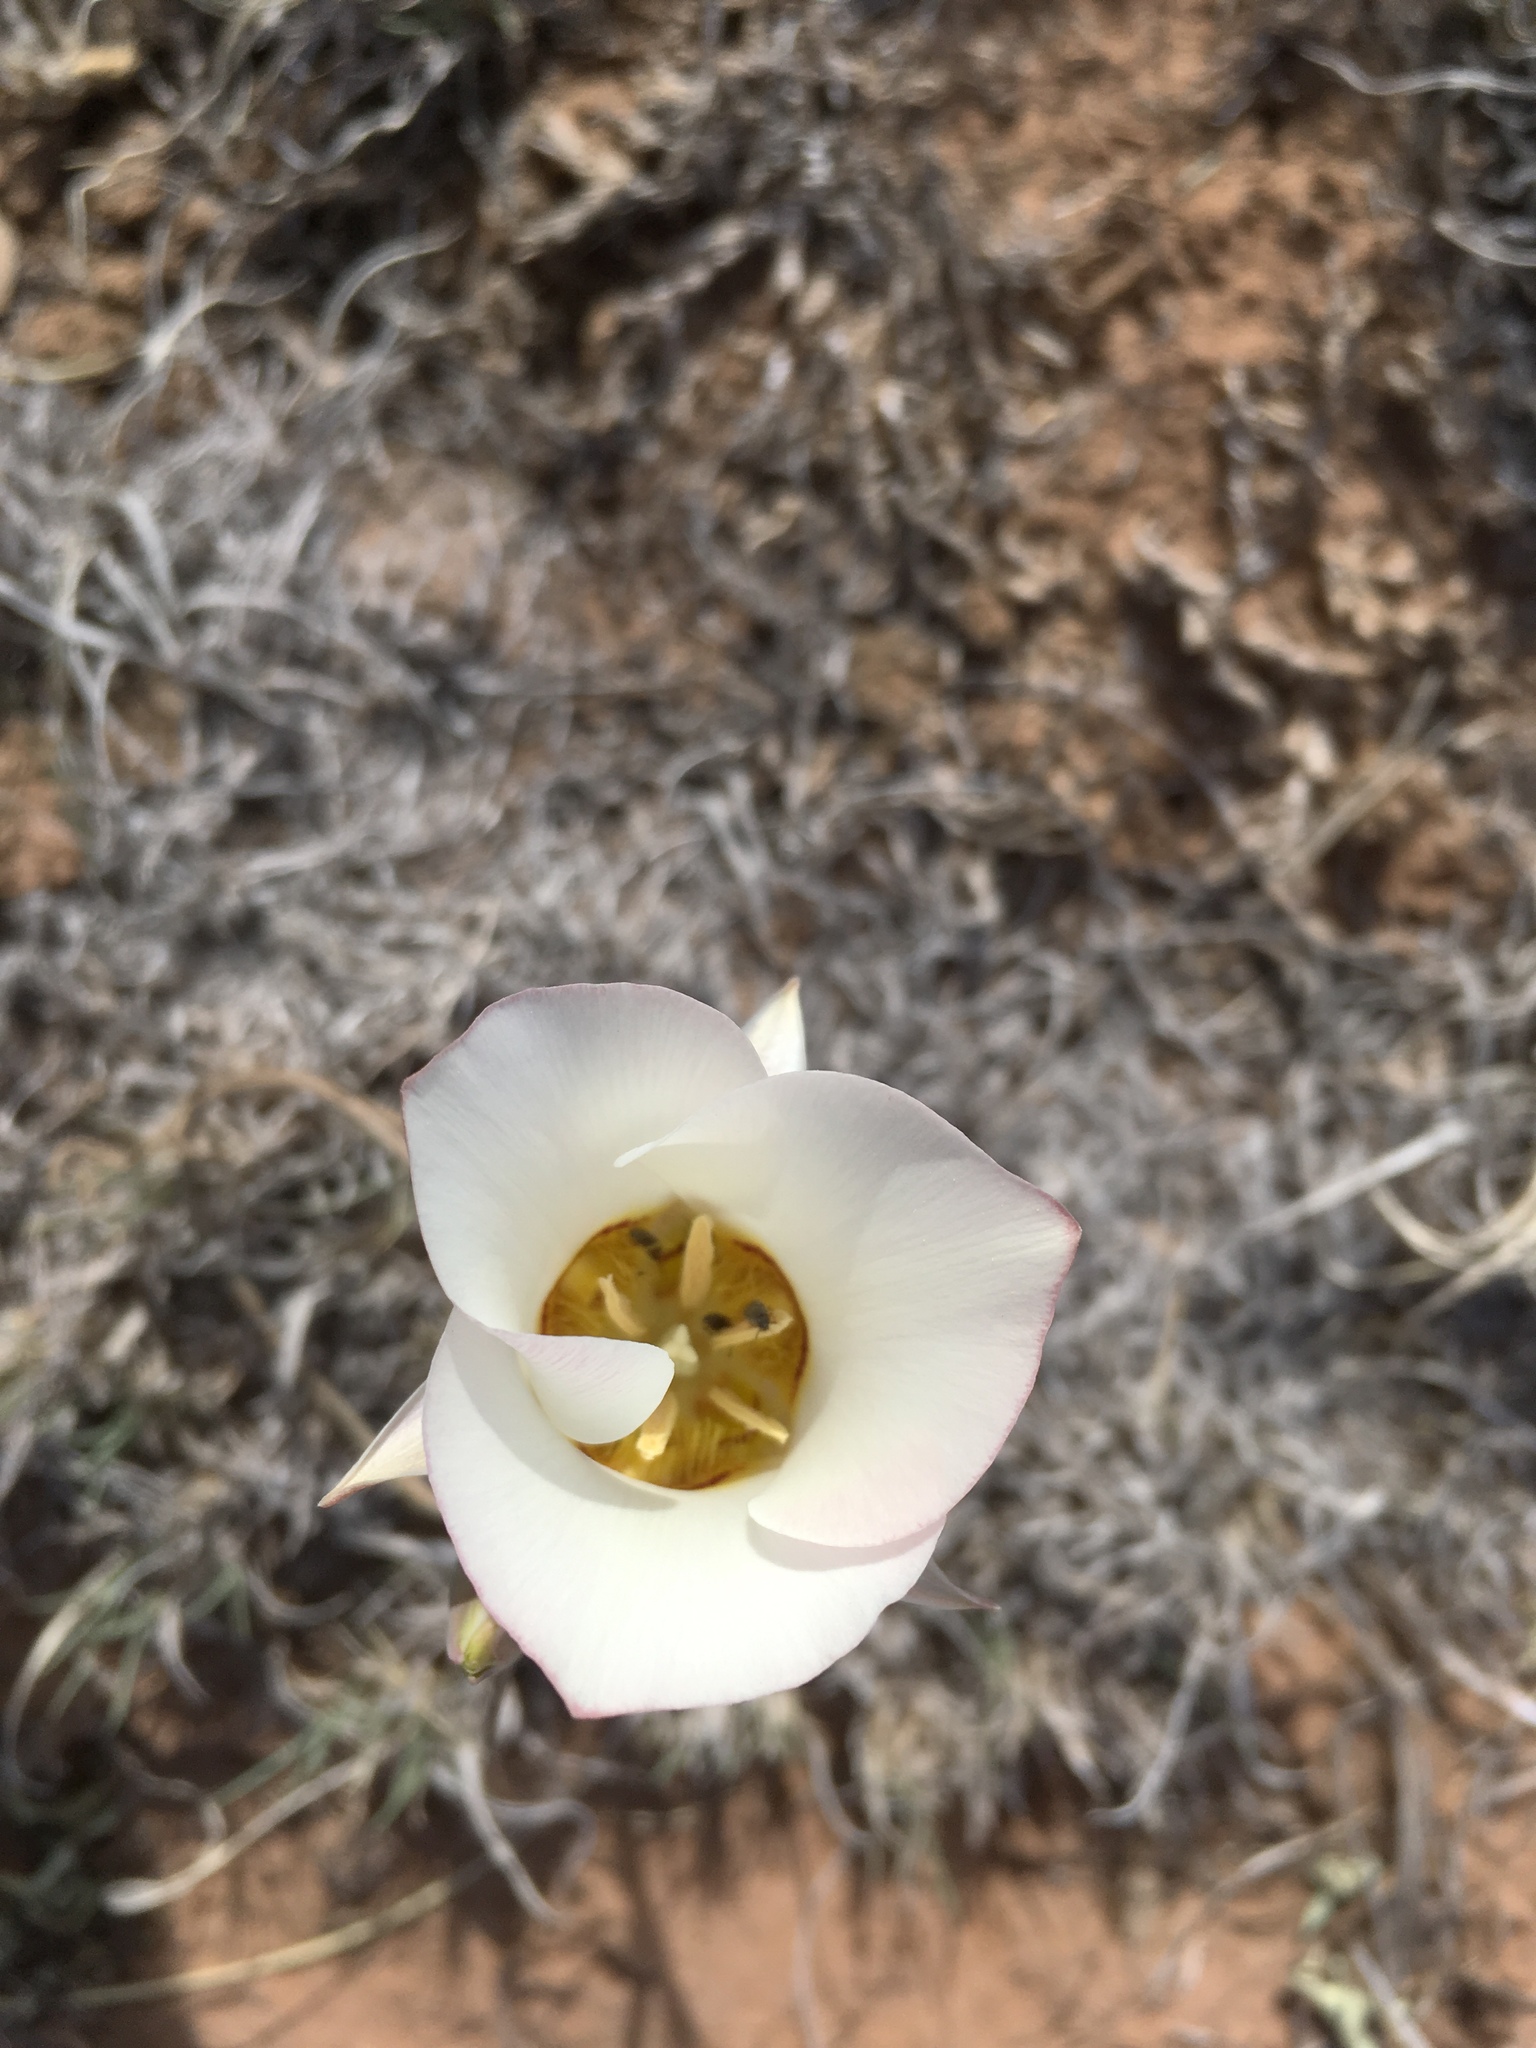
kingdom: Plantae
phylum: Tracheophyta
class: Liliopsida
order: Liliales
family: Liliaceae
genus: Calochortus
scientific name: Calochortus nuttallii
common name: Sego-lily
